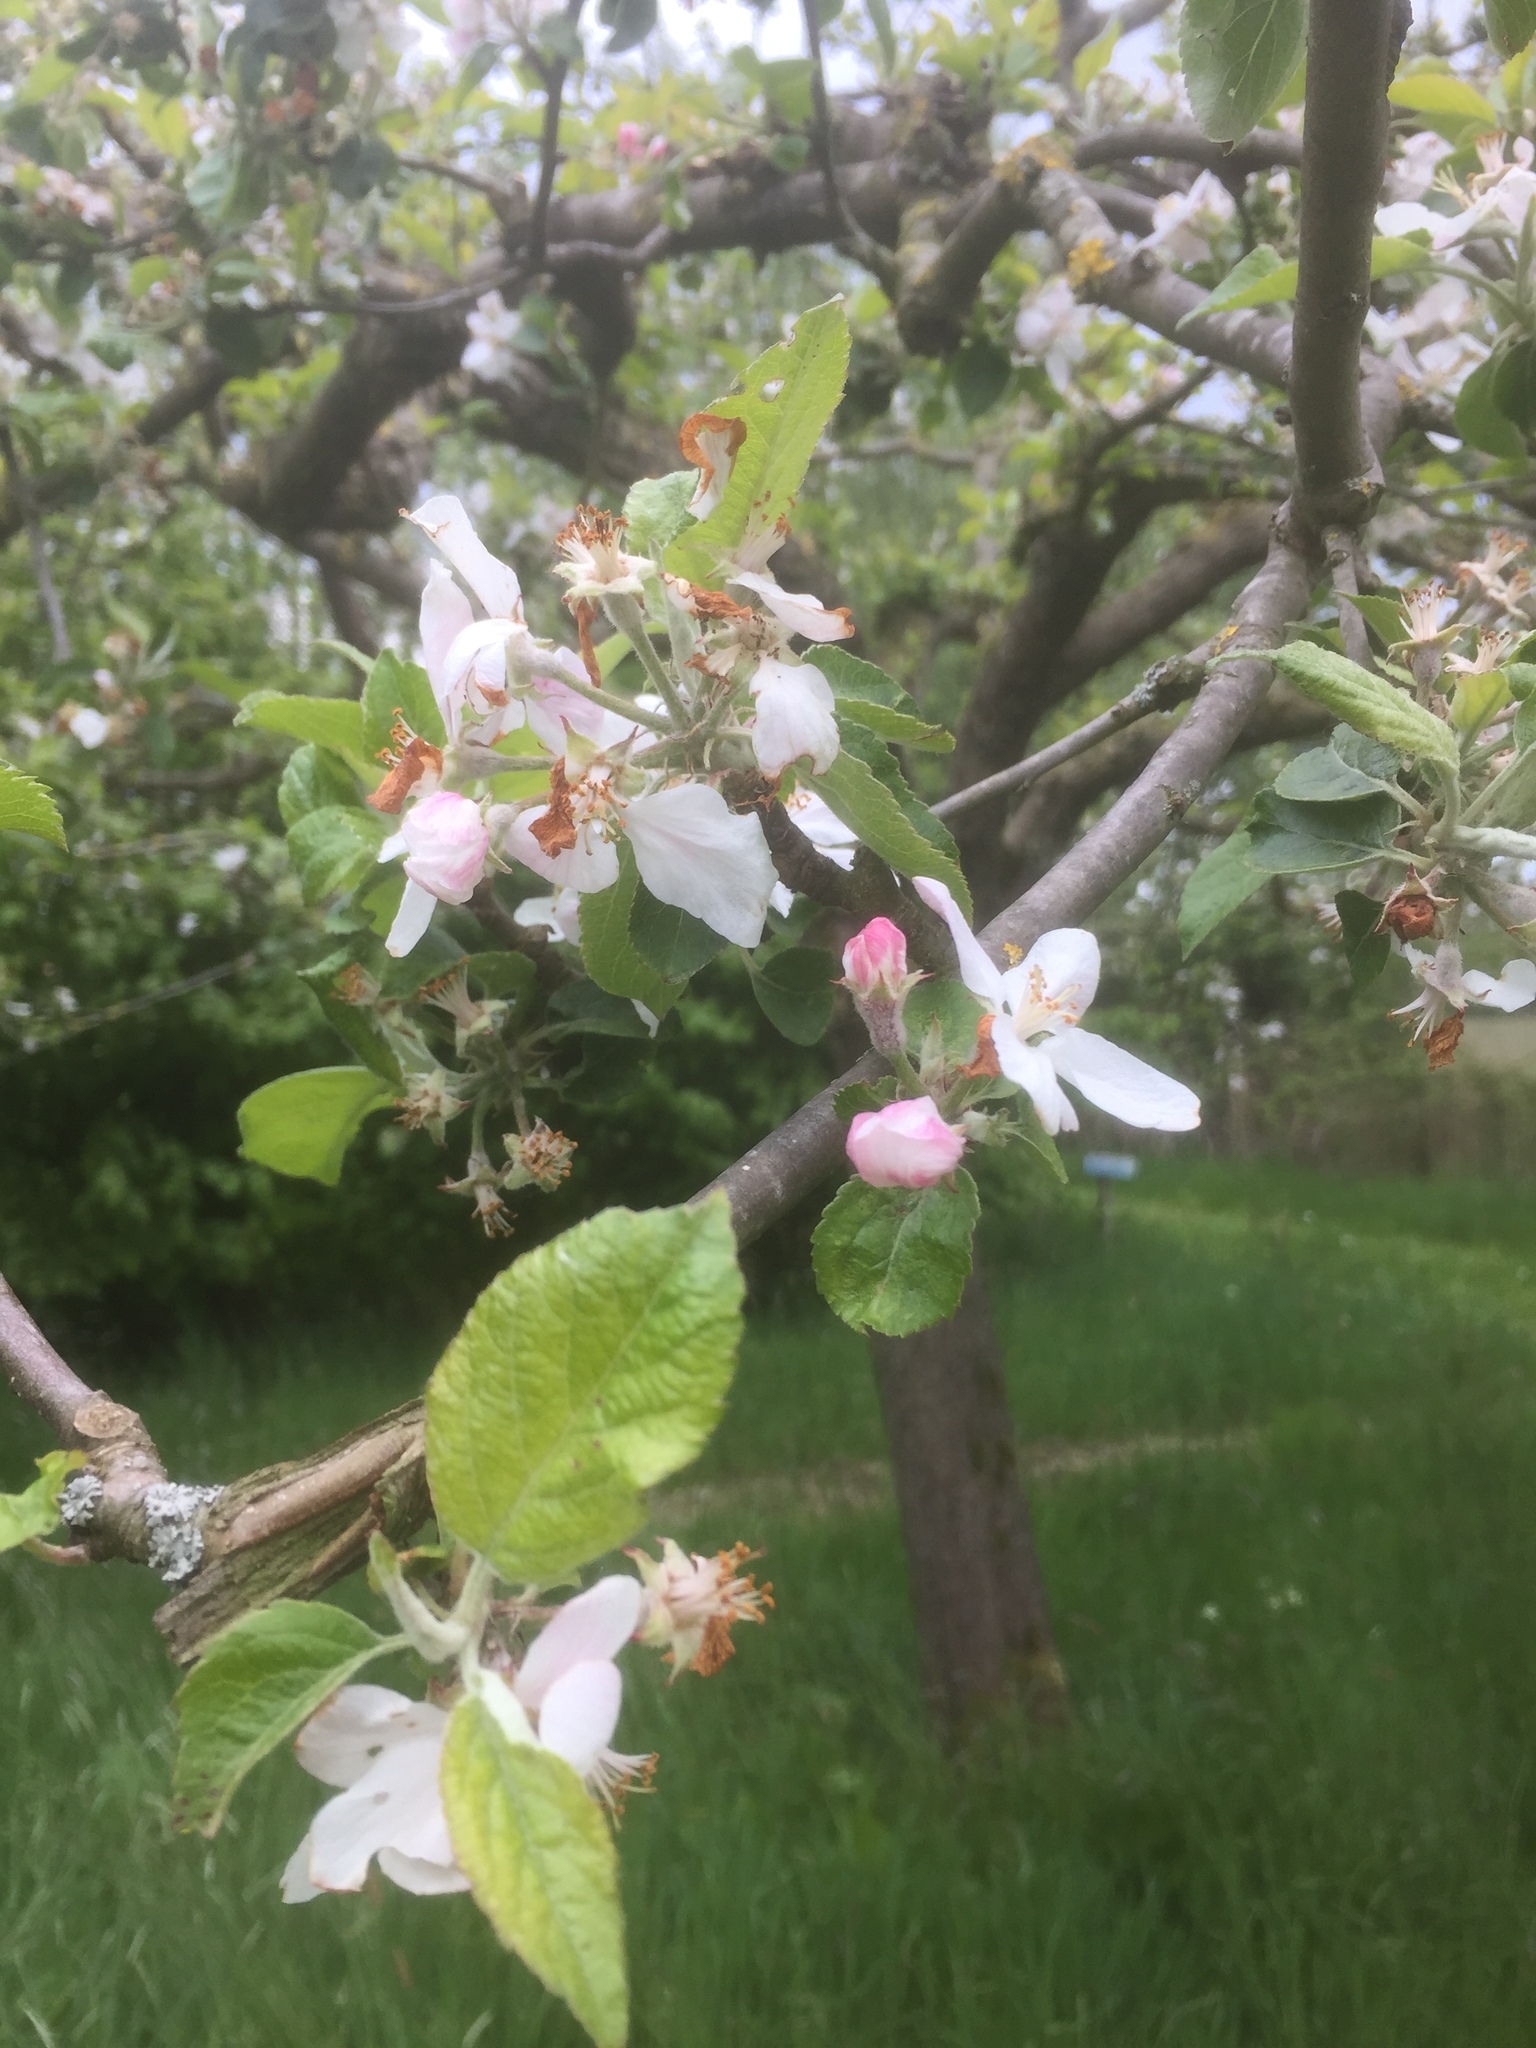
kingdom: Plantae
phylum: Tracheophyta
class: Magnoliopsida
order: Rosales
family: Rosaceae
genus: Malus
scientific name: Malus domestica
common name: Apple
